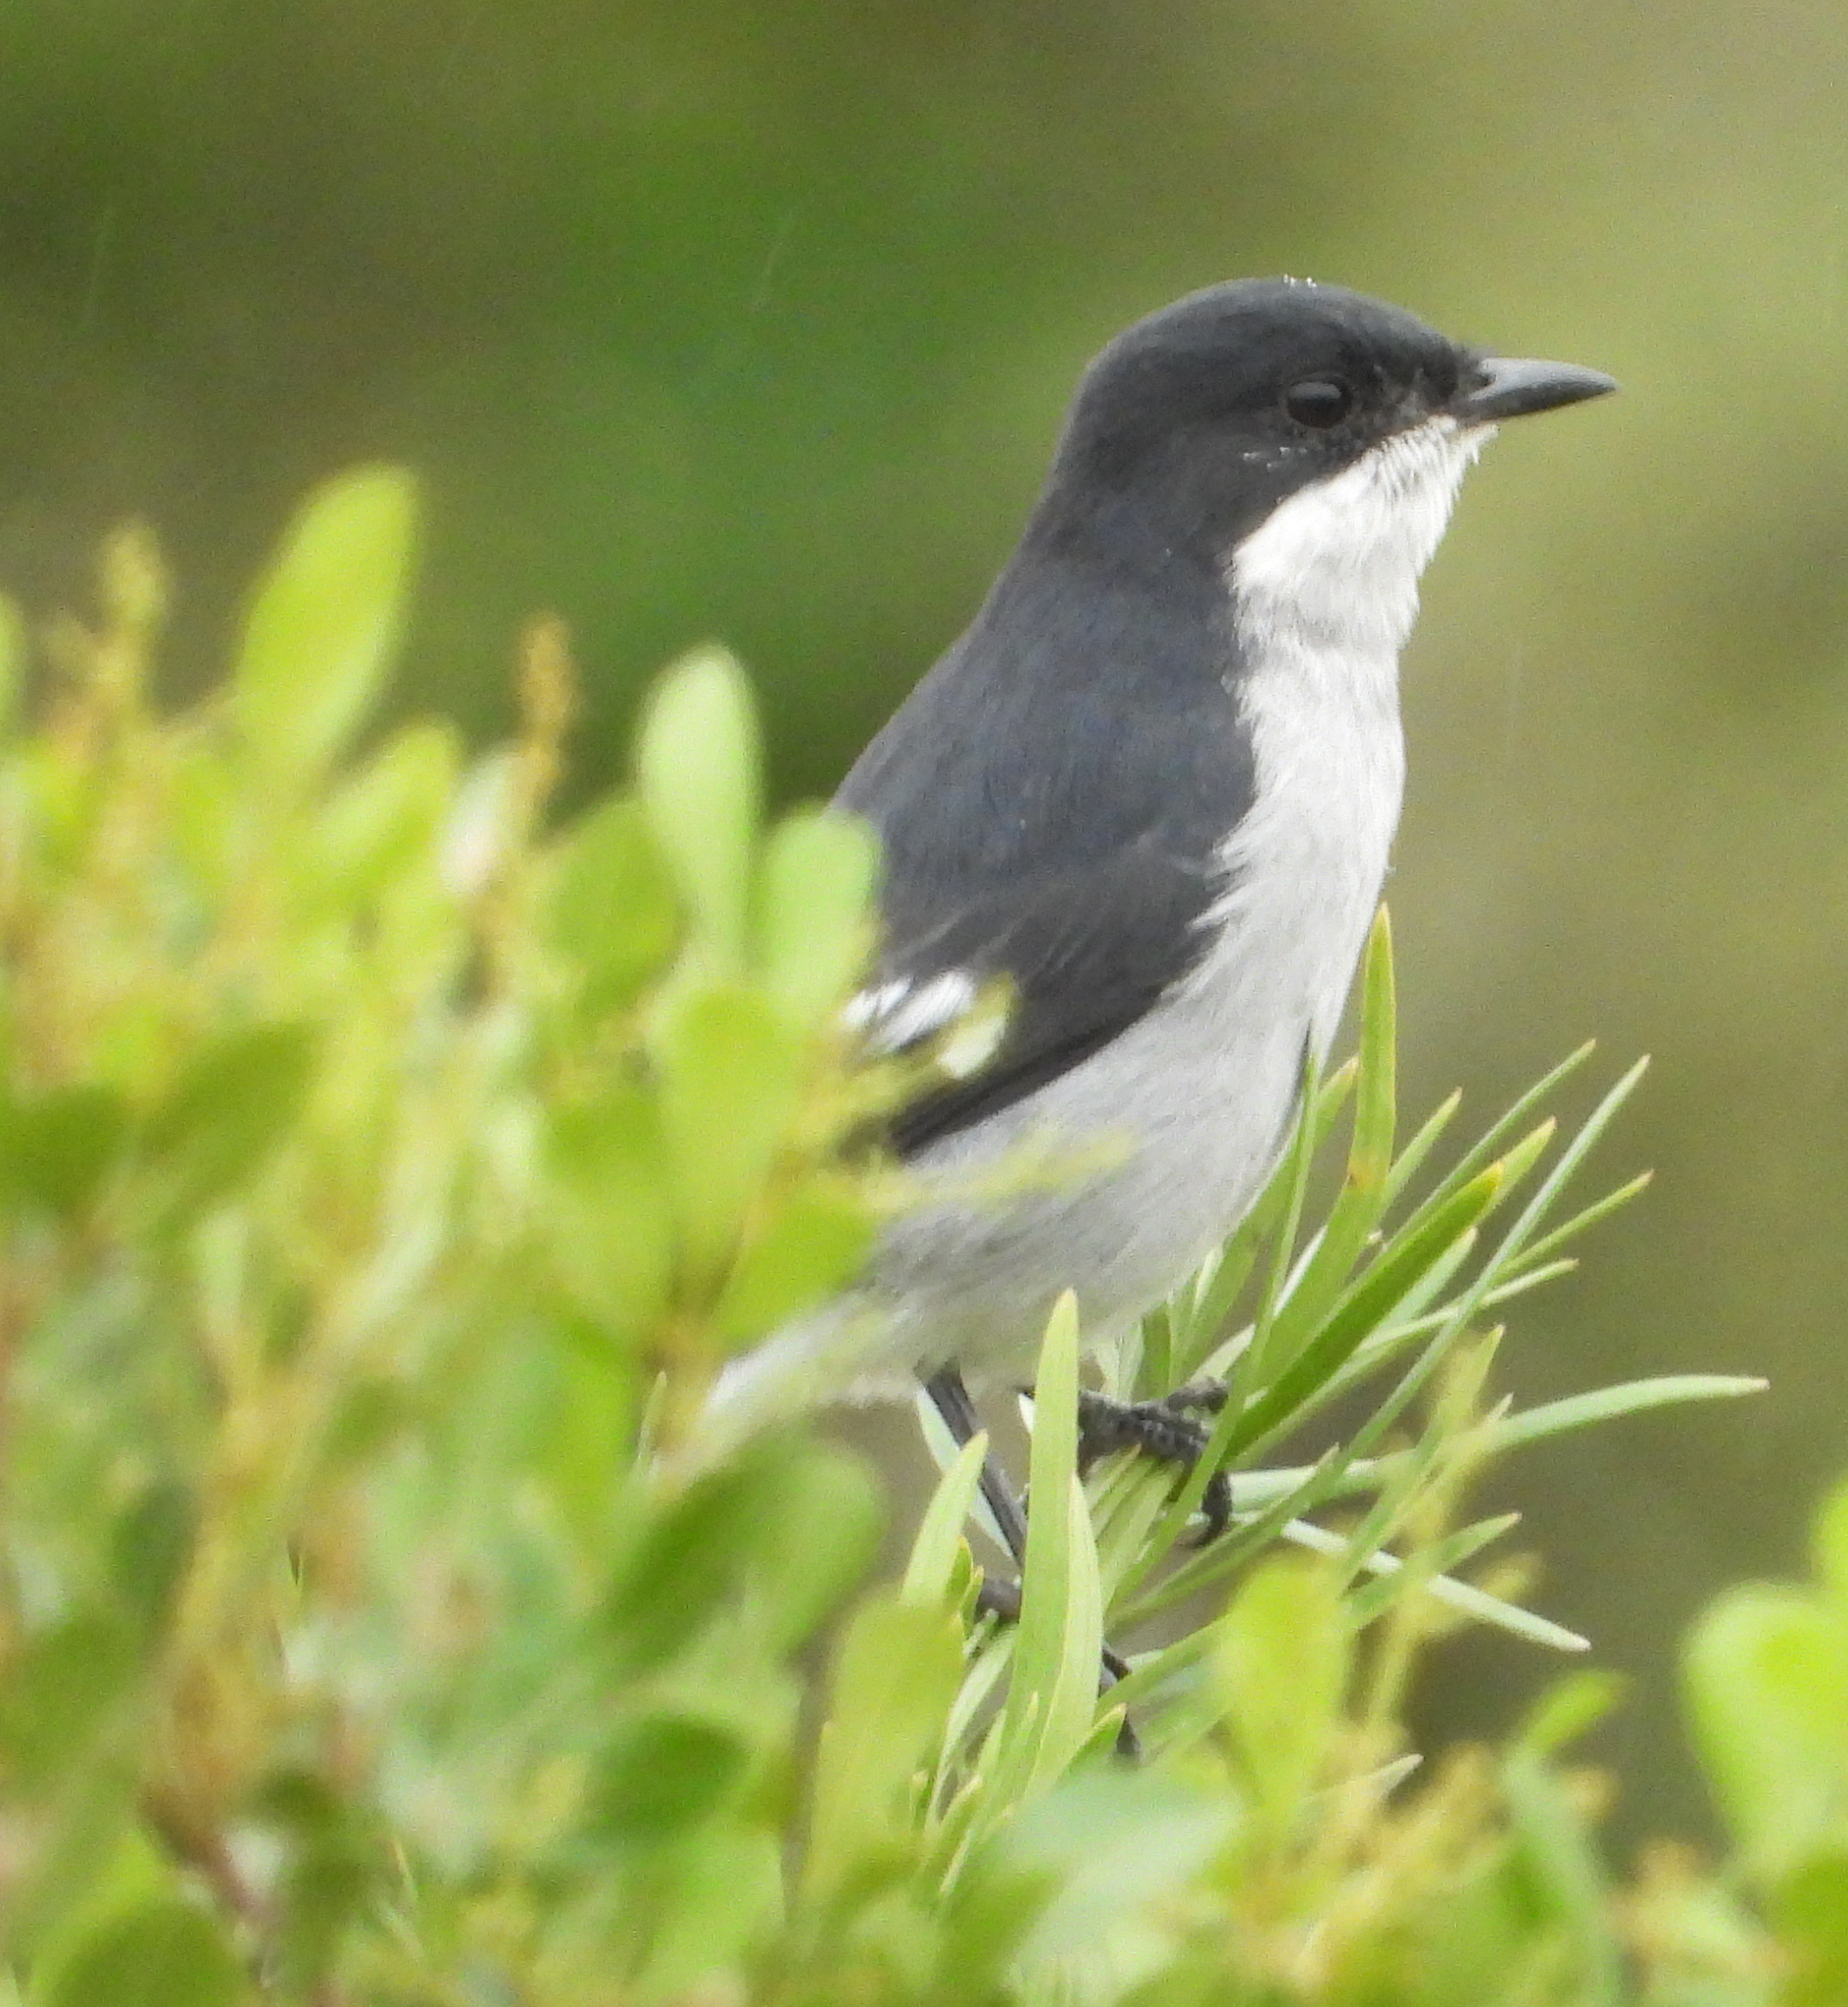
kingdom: Animalia
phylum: Chordata
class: Aves
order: Passeriformes
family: Muscicapidae
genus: Sigelus
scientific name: Sigelus silens
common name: Fiscal flycatcher
